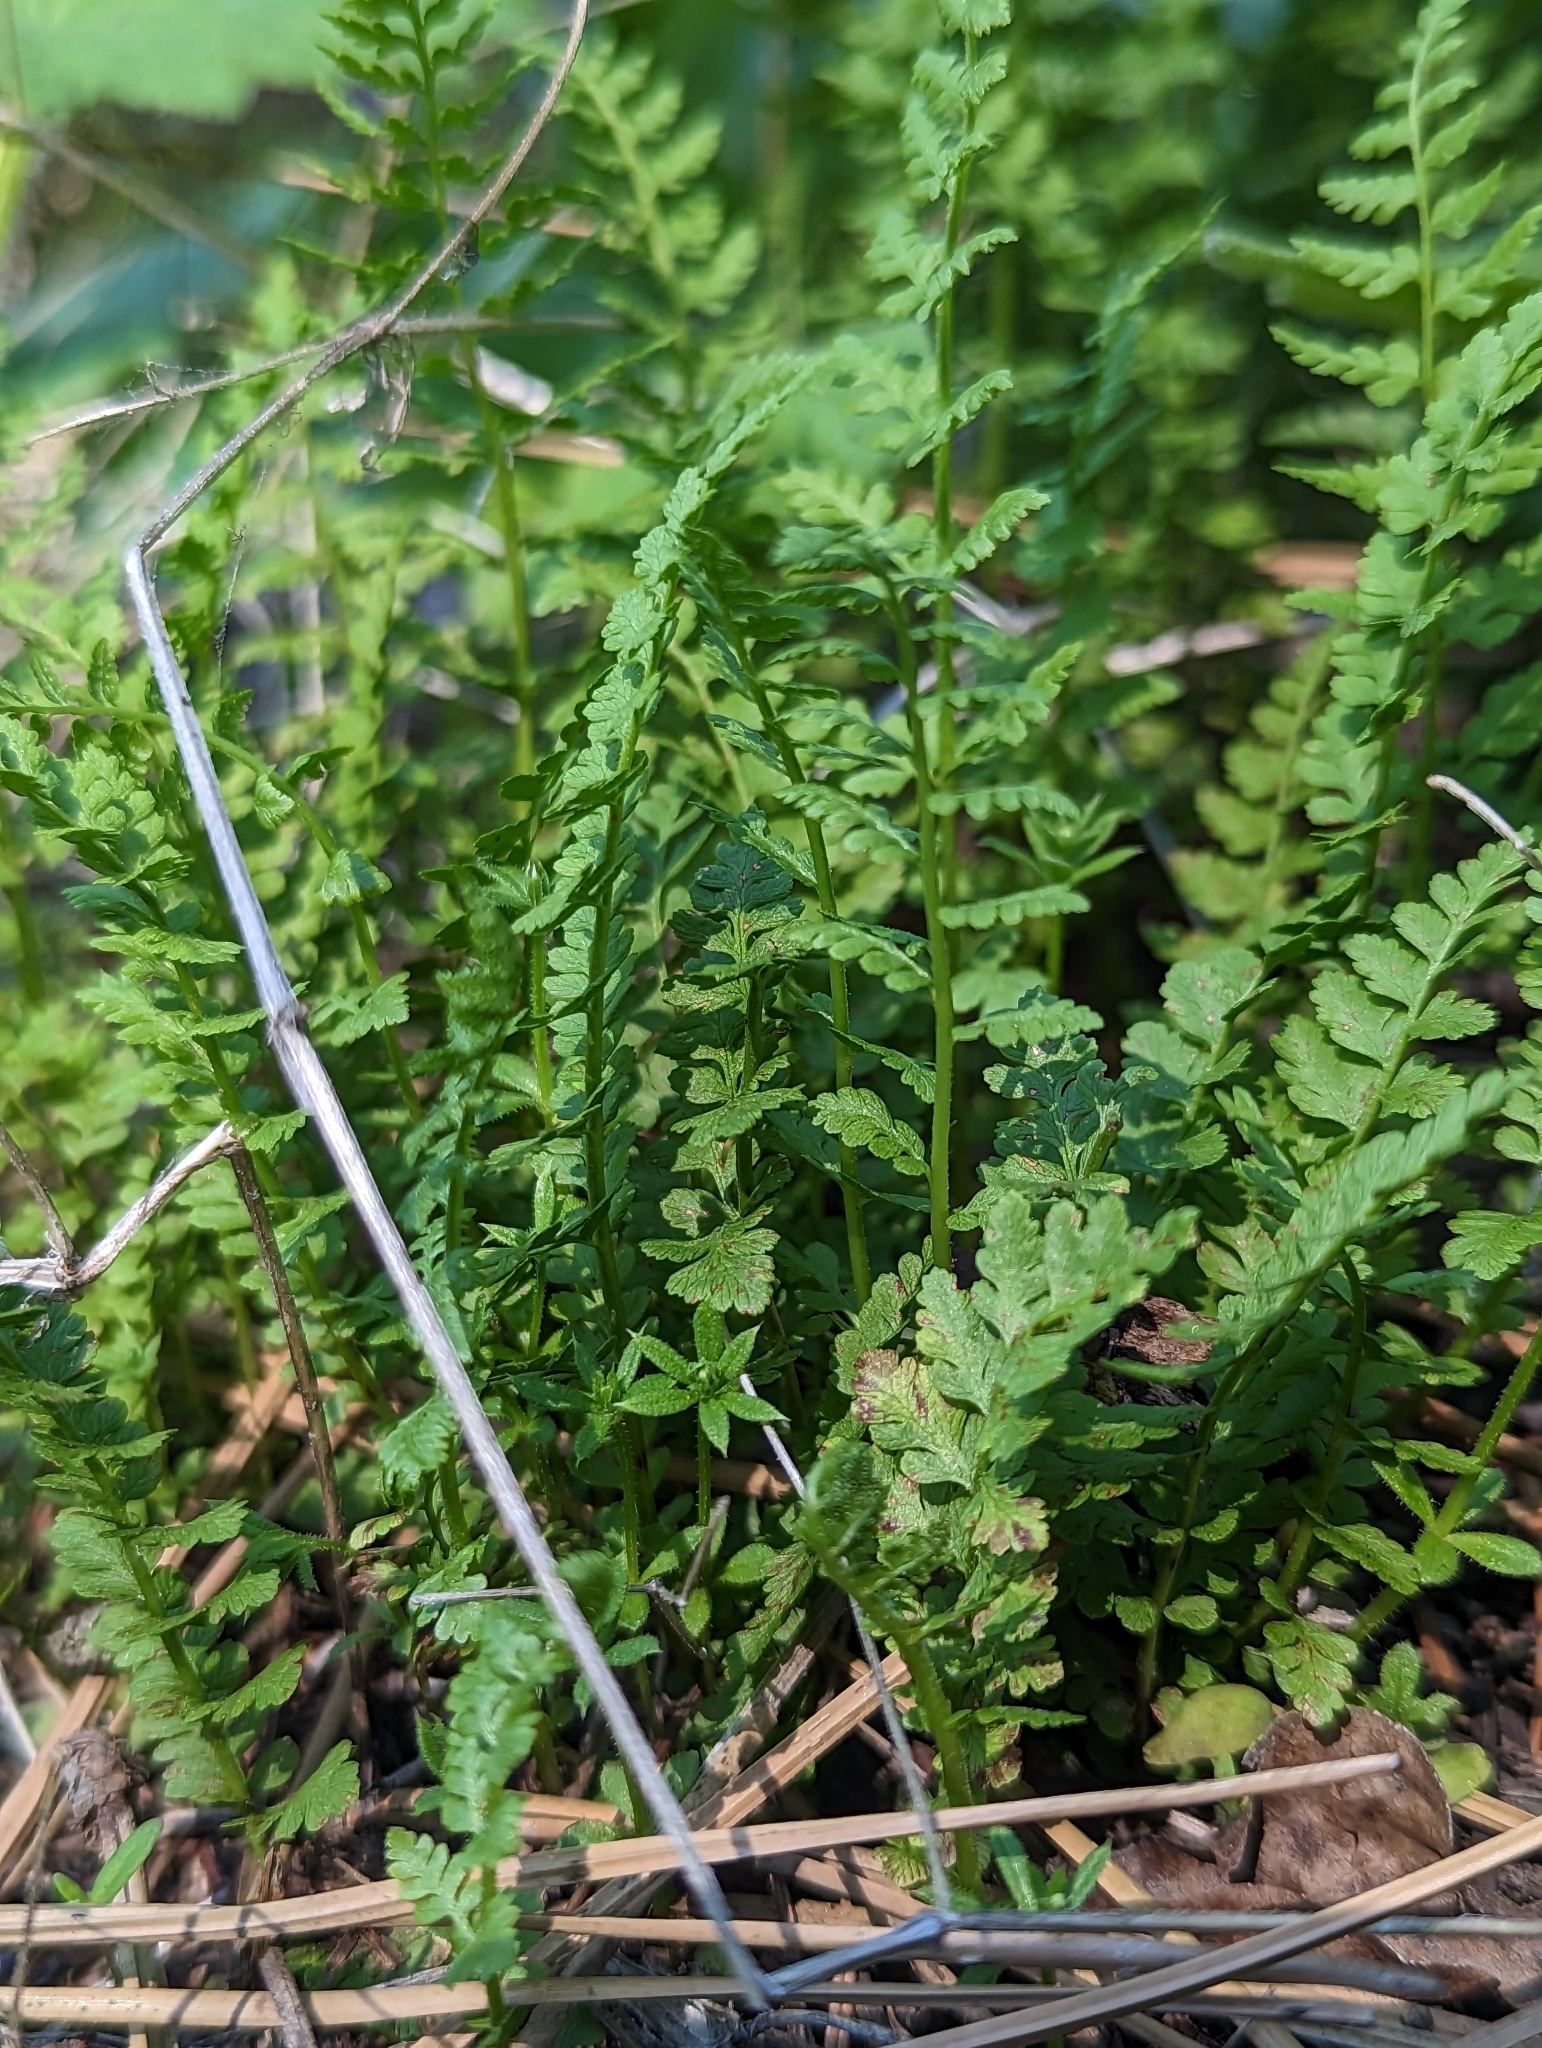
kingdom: Plantae
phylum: Tracheophyta
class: Polypodiopsida
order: Polypodiales
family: Woodsiaceae
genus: Physematium
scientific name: Physematium oreganum
